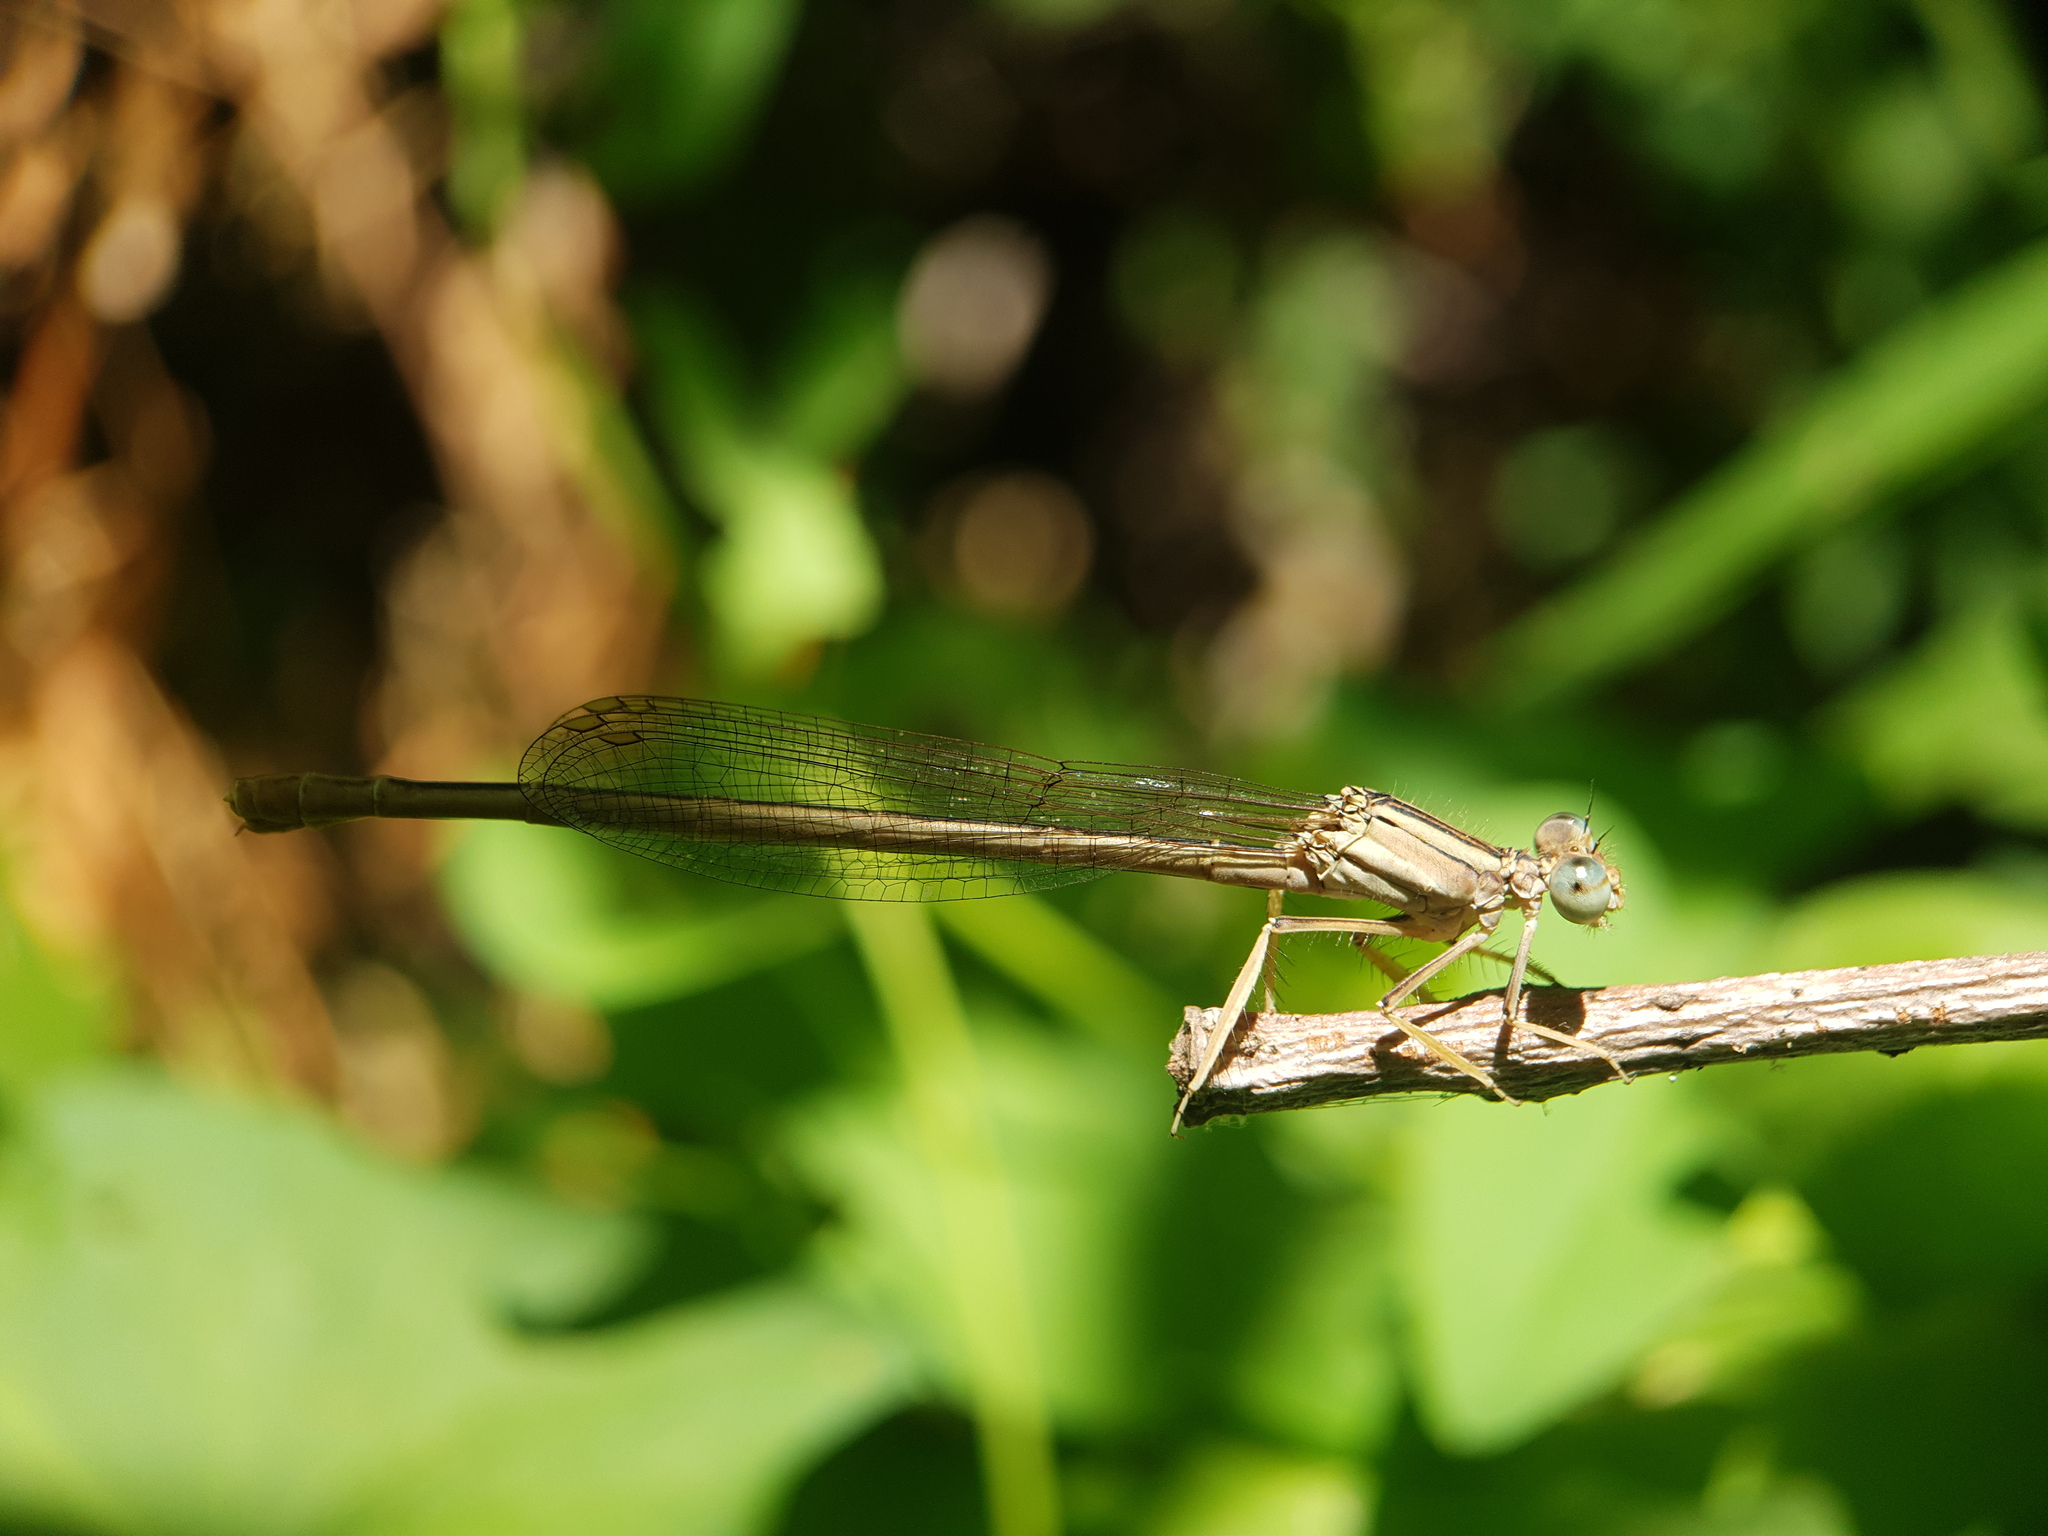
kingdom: Animalia
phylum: Arthropoda
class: Insecta
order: Odonata
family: Platycnemididae
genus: Platycnemis
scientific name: Platycnemis dealbata
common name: Ivory featherleg
